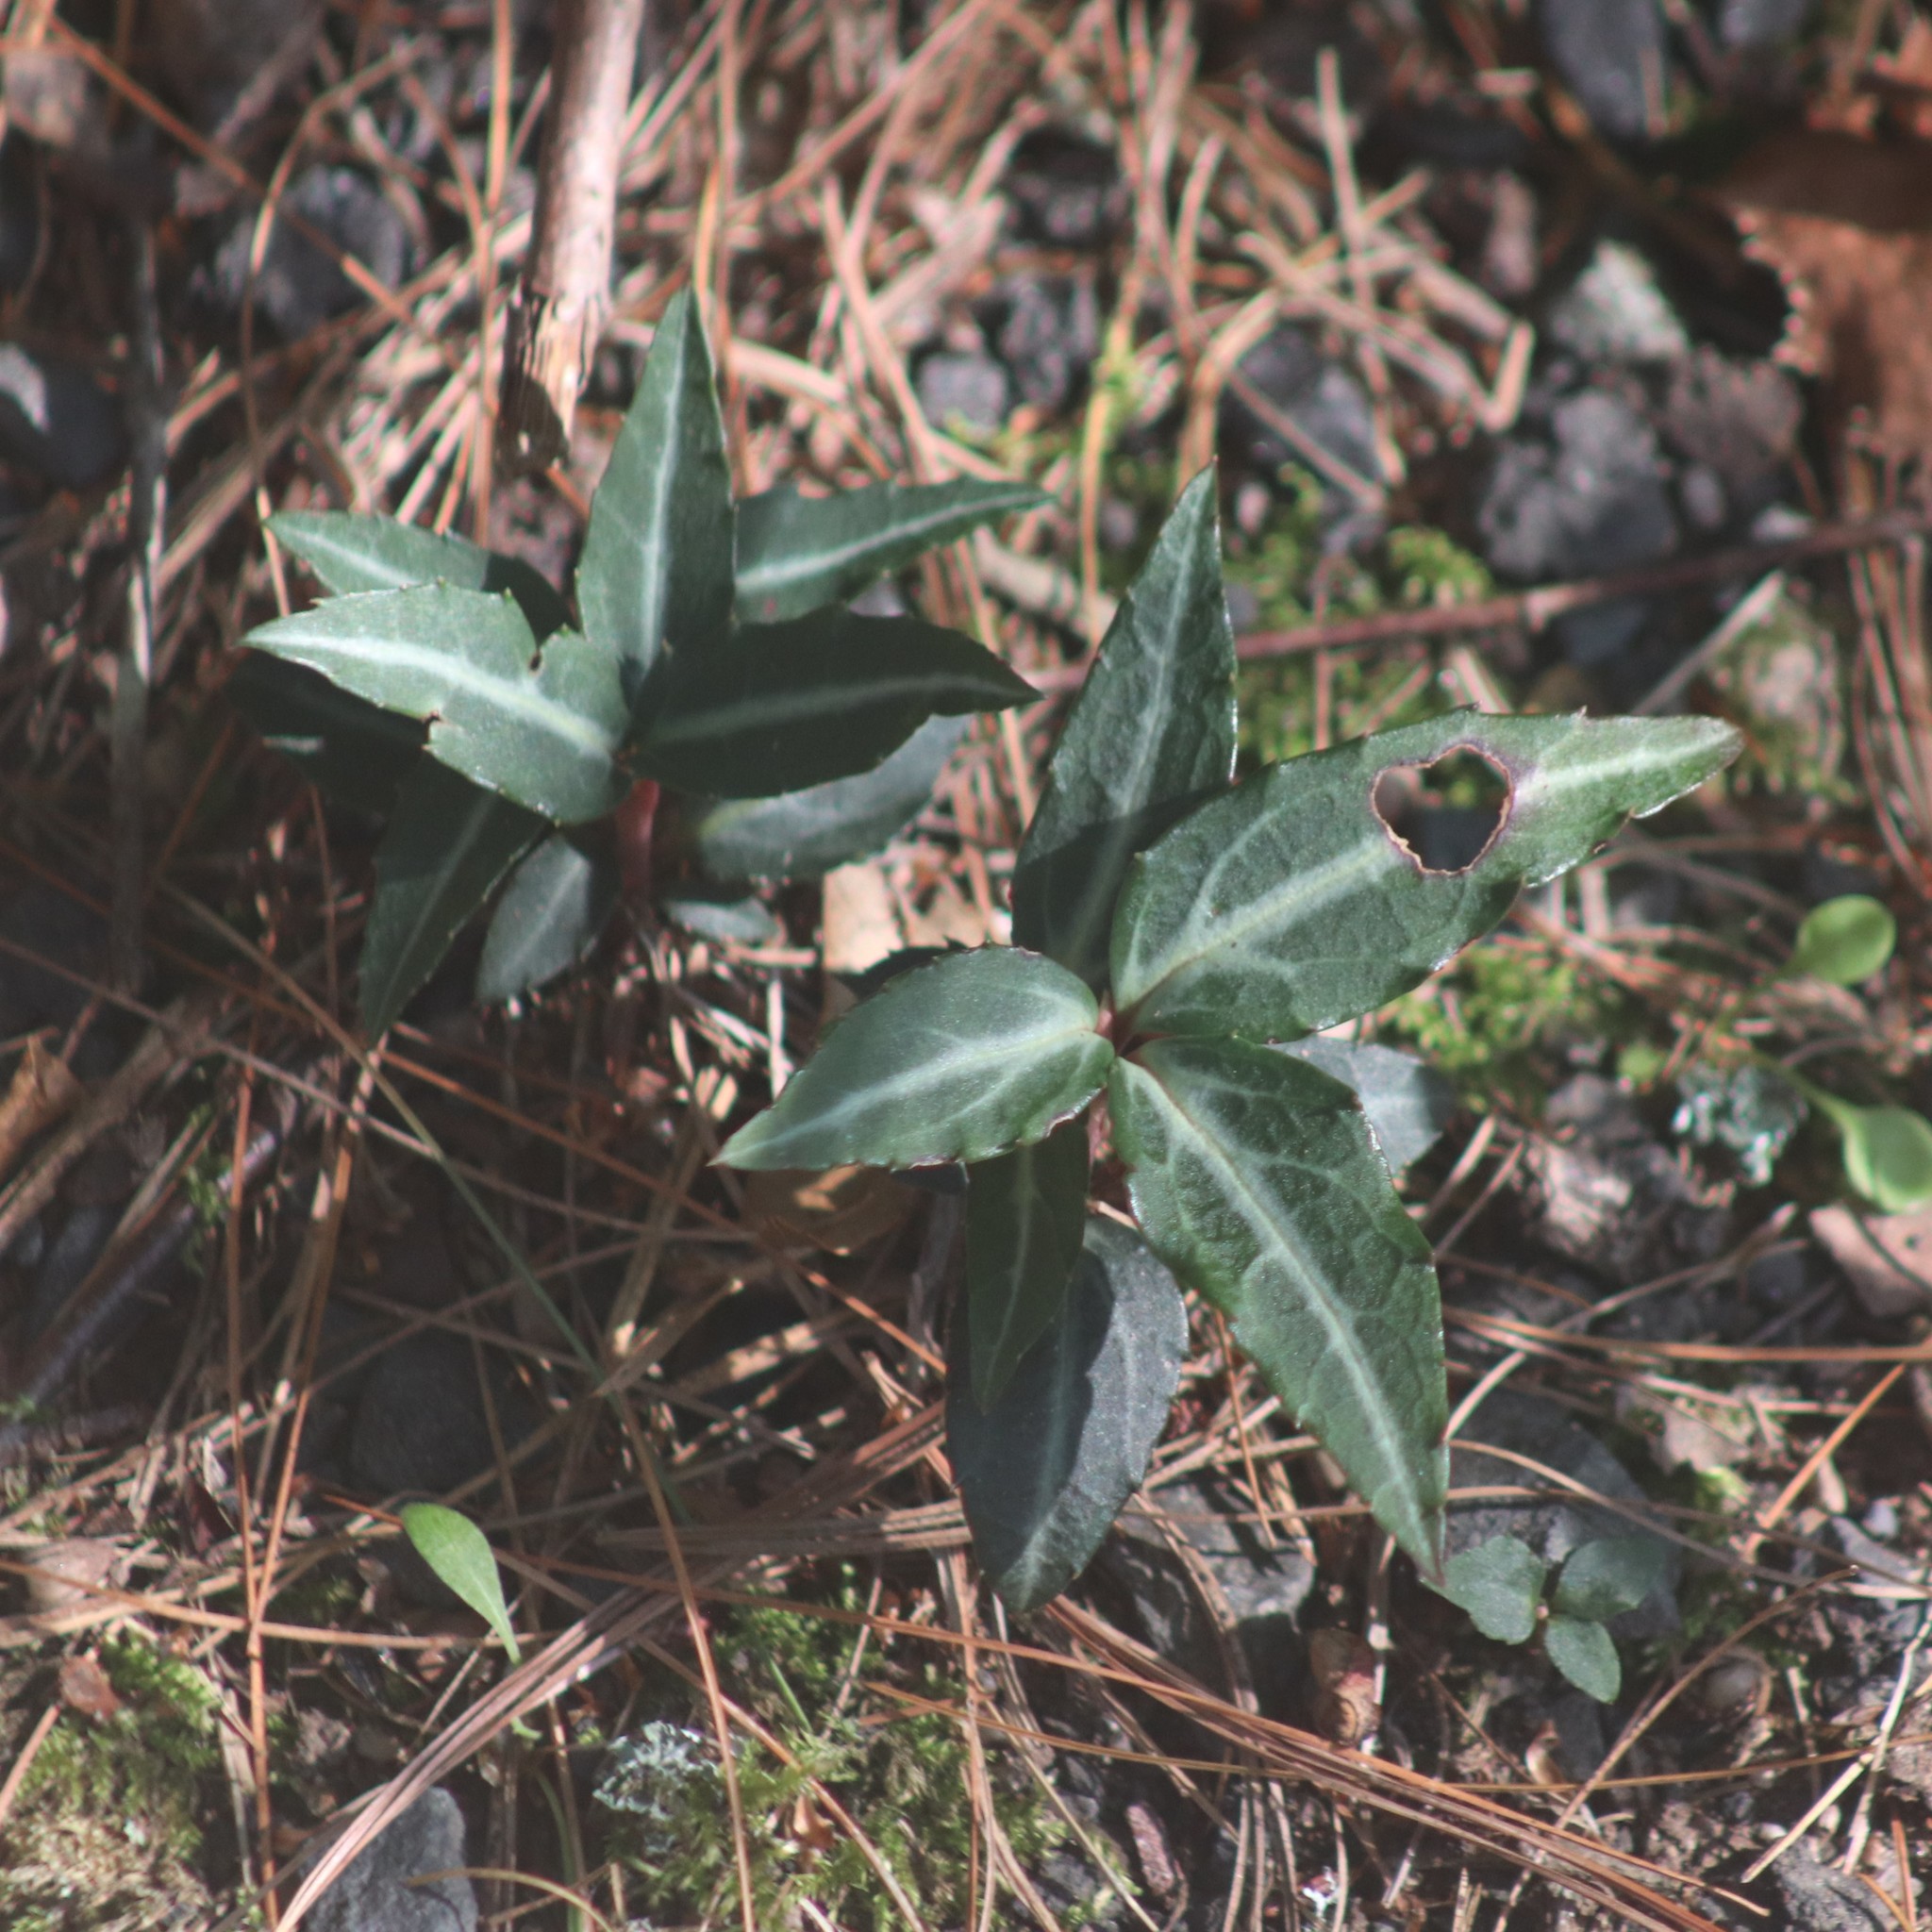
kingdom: Plantae
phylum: Tracheophyta
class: Magnoliopsida
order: Ericales
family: Ericaceae
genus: Chimaphila
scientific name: Chimaphila maculata
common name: Spotted pipsissewa
